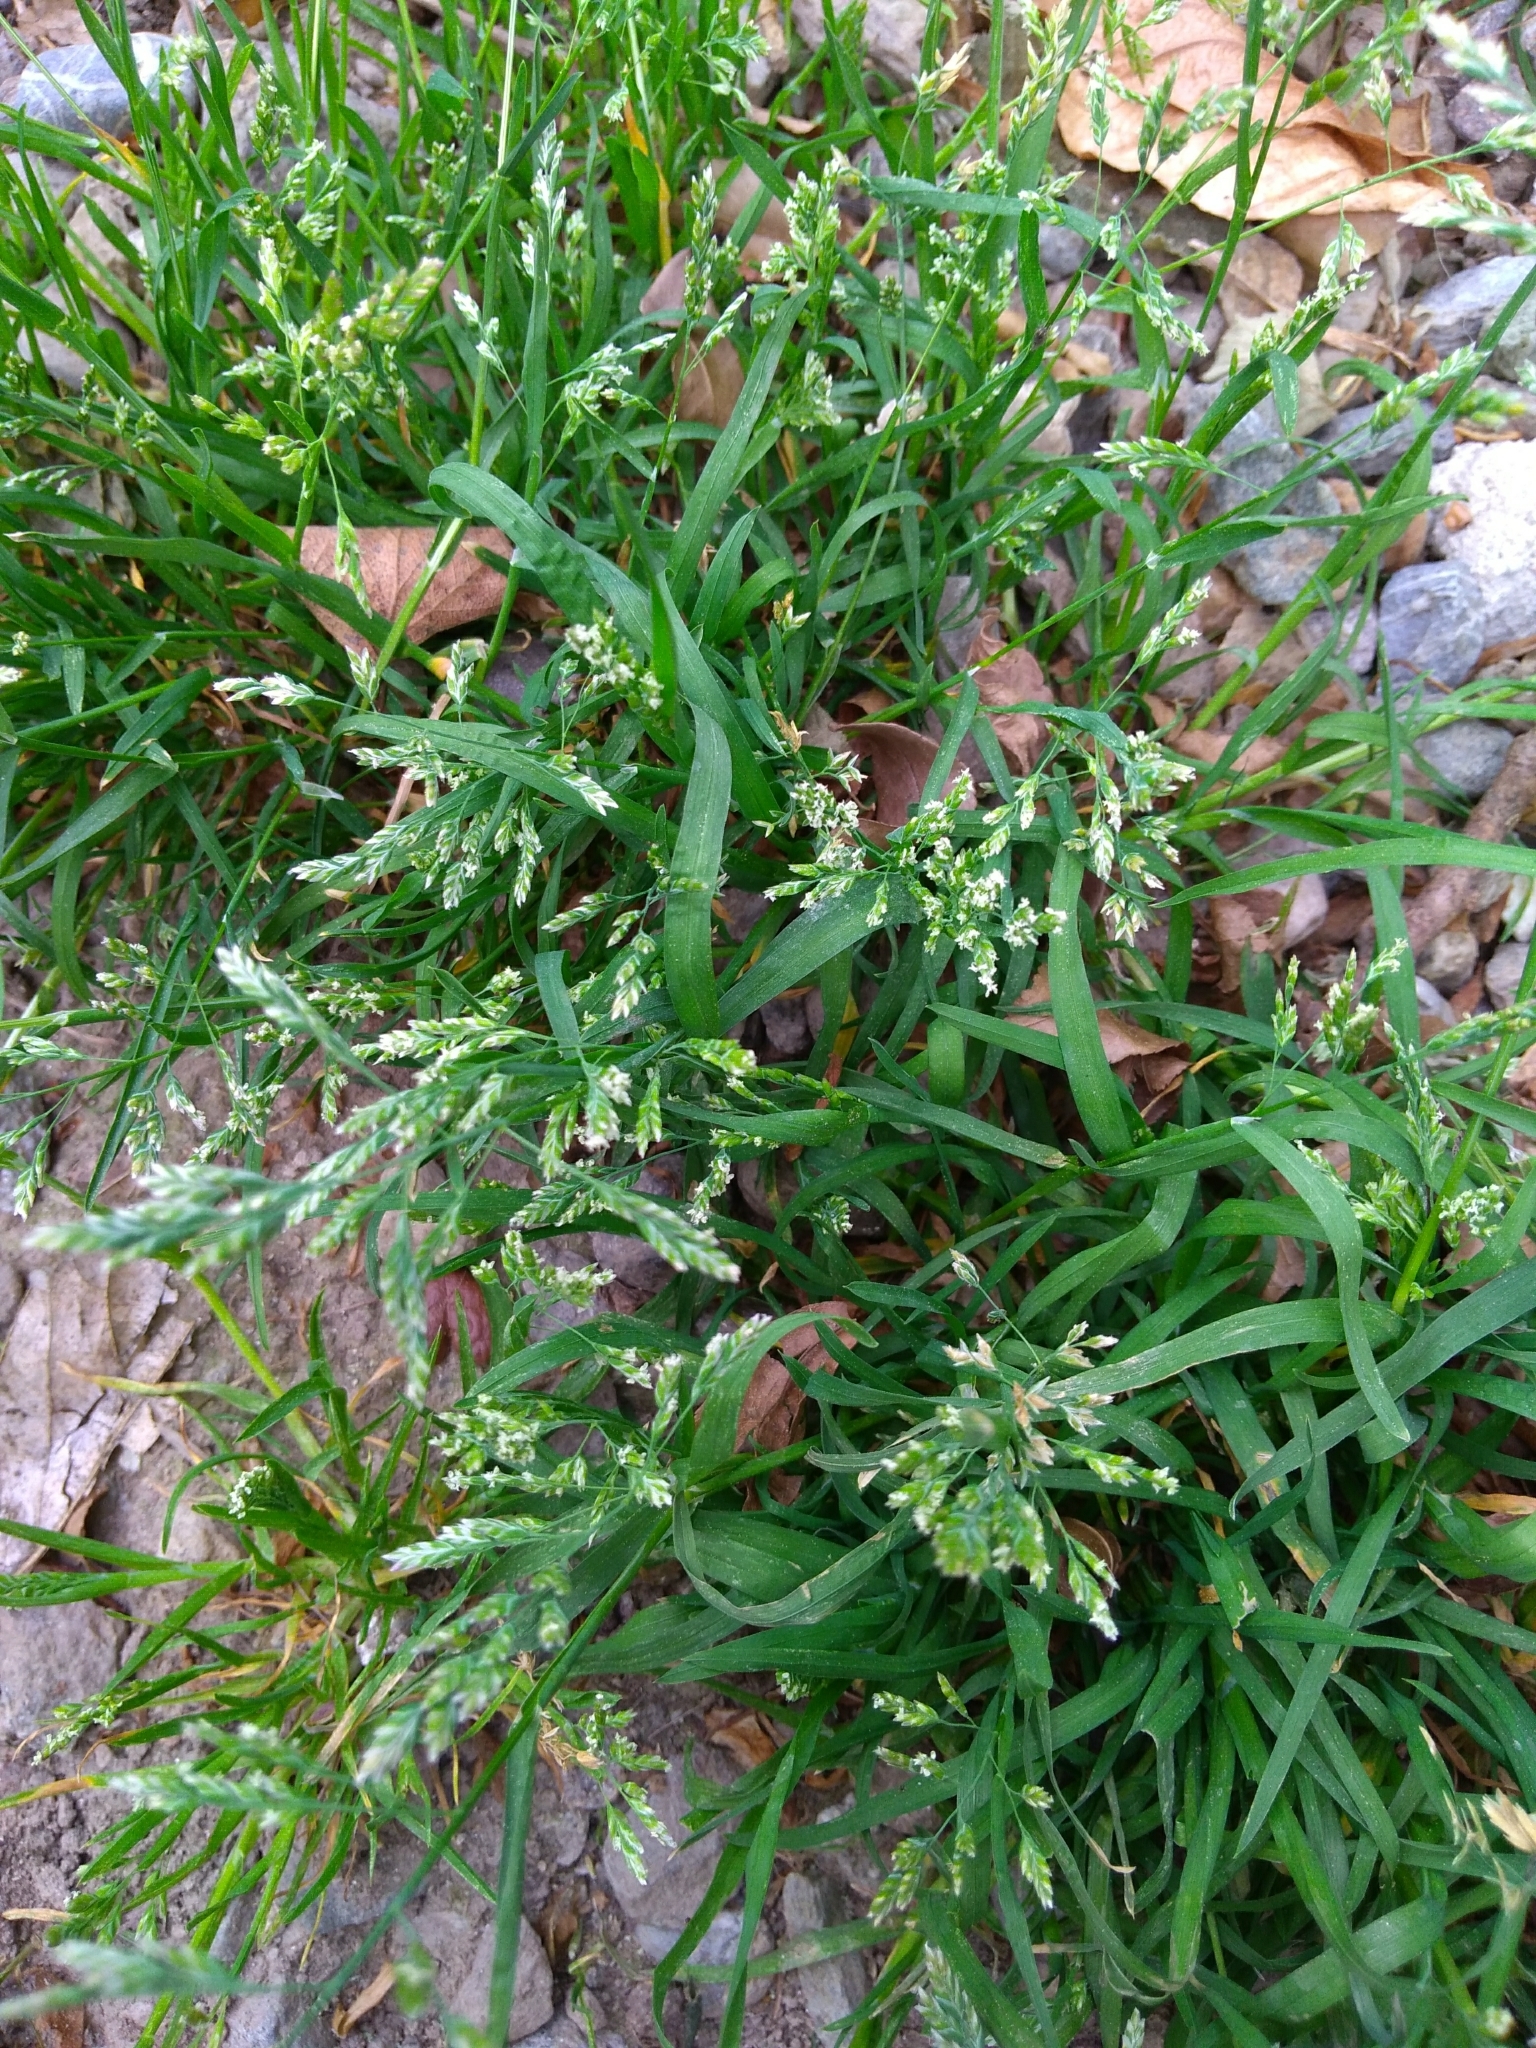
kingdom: Plantae
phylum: Tracheophyta
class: Liliopsida
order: Poales
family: Poaceae
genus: Poa
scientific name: Poa annua
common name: Annual bluegrass
